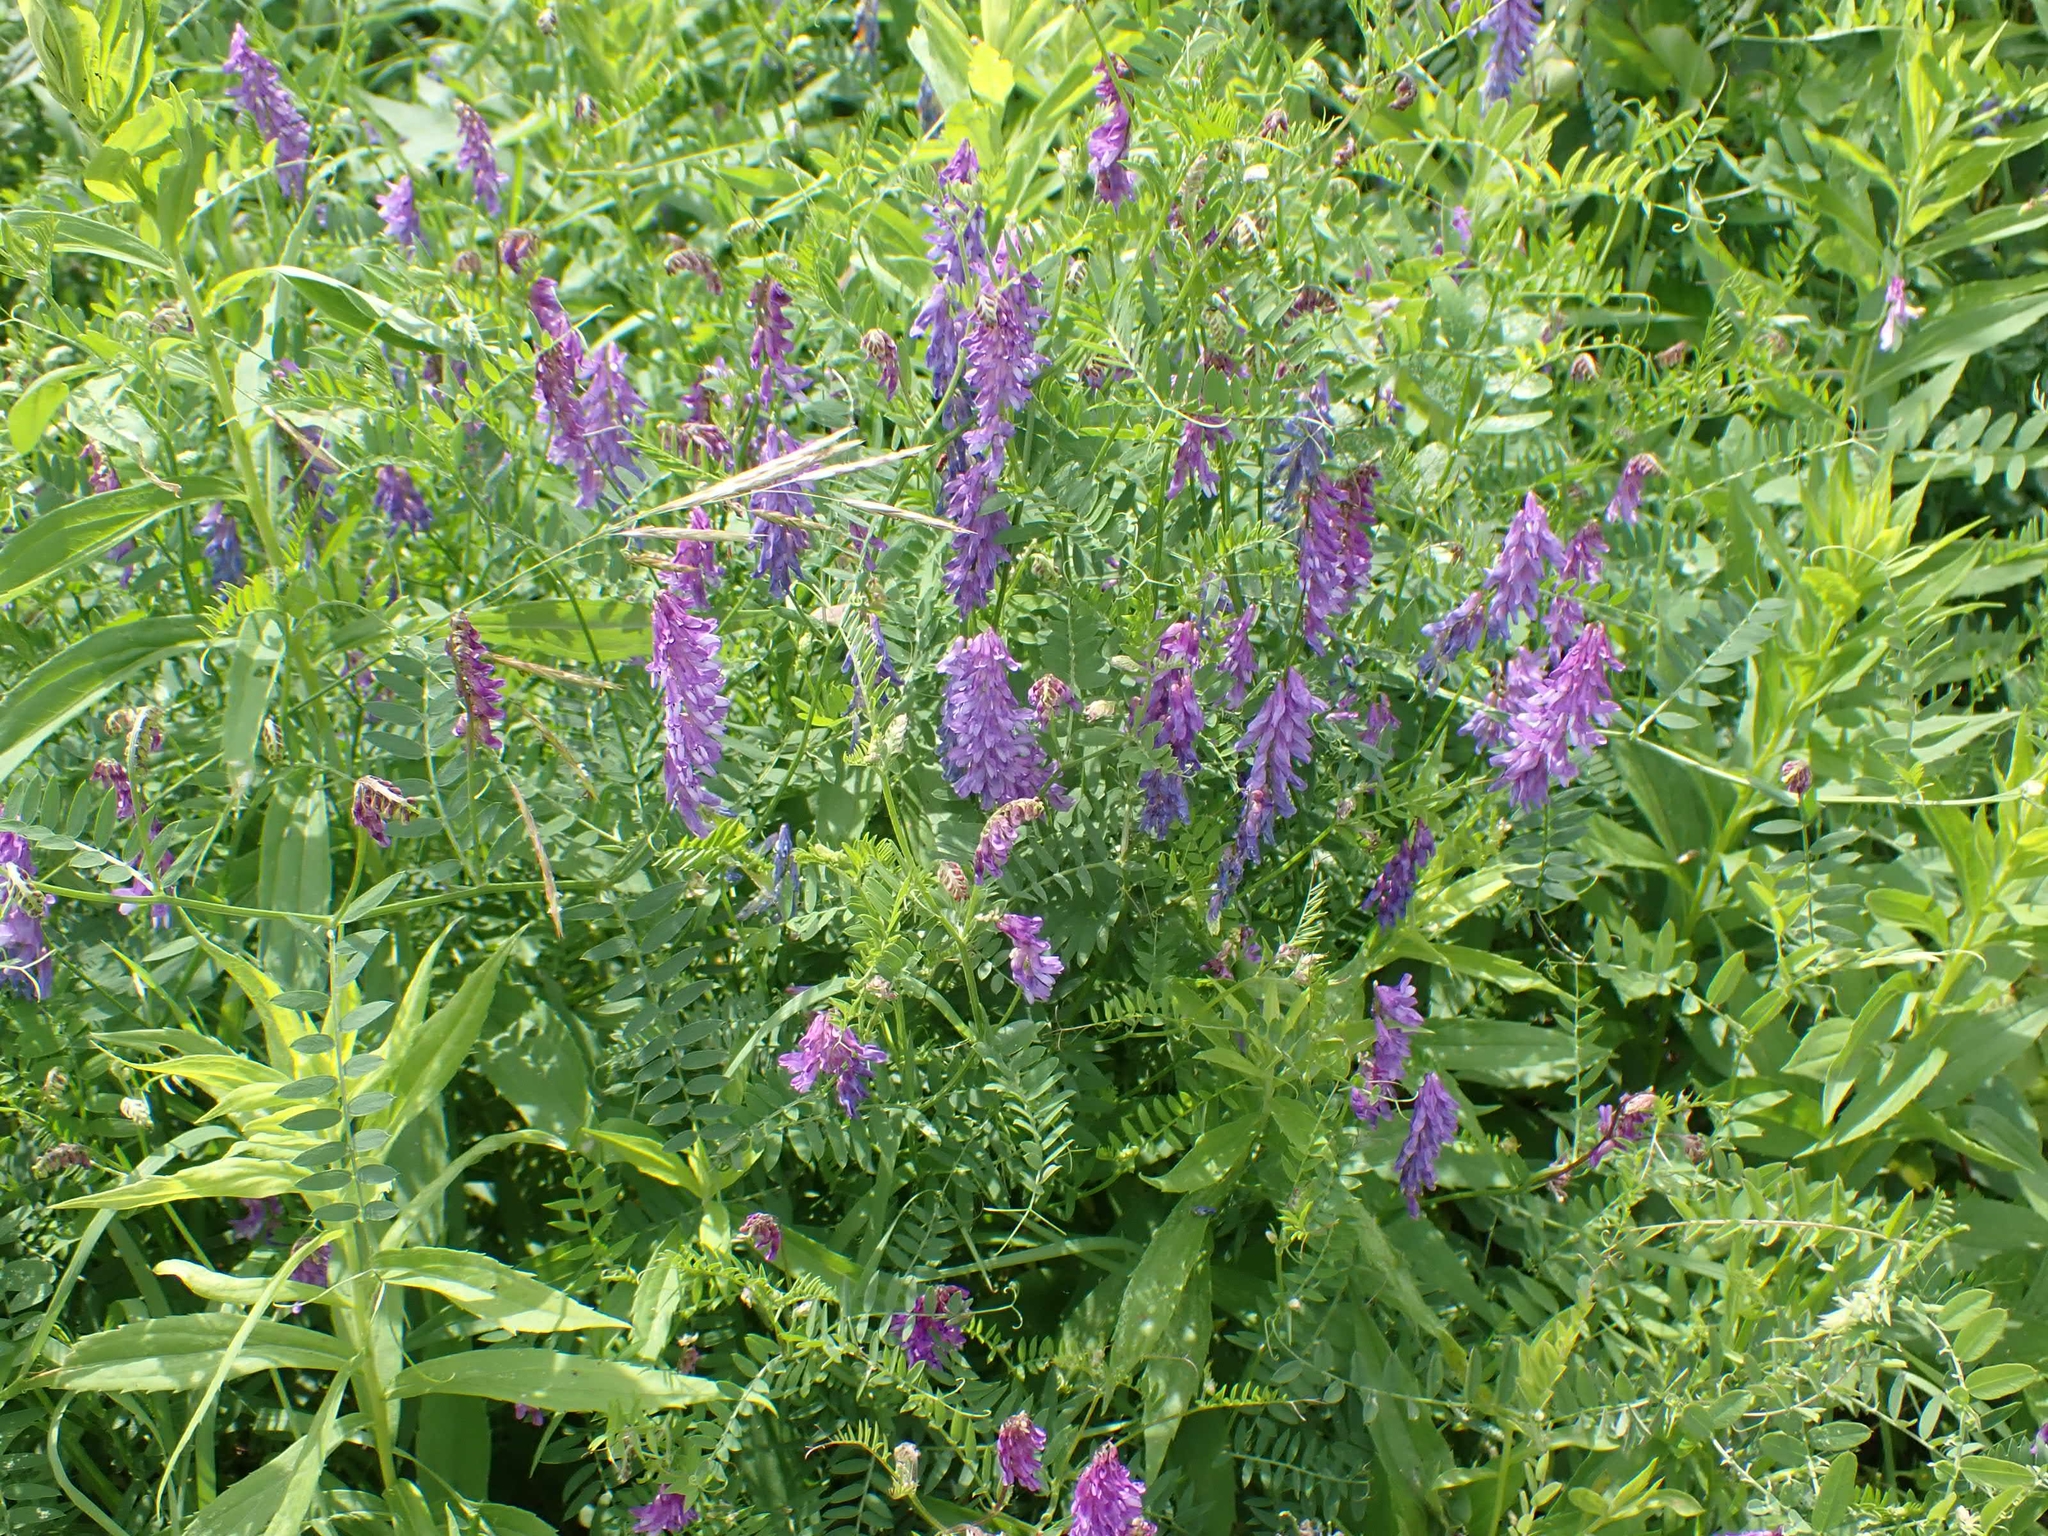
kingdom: Plantae
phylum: Tracheophyta
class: Magnoliopsida
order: Fabales
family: Fabaceae
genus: Vicia
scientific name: Vicia cracca
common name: Bird vetch
